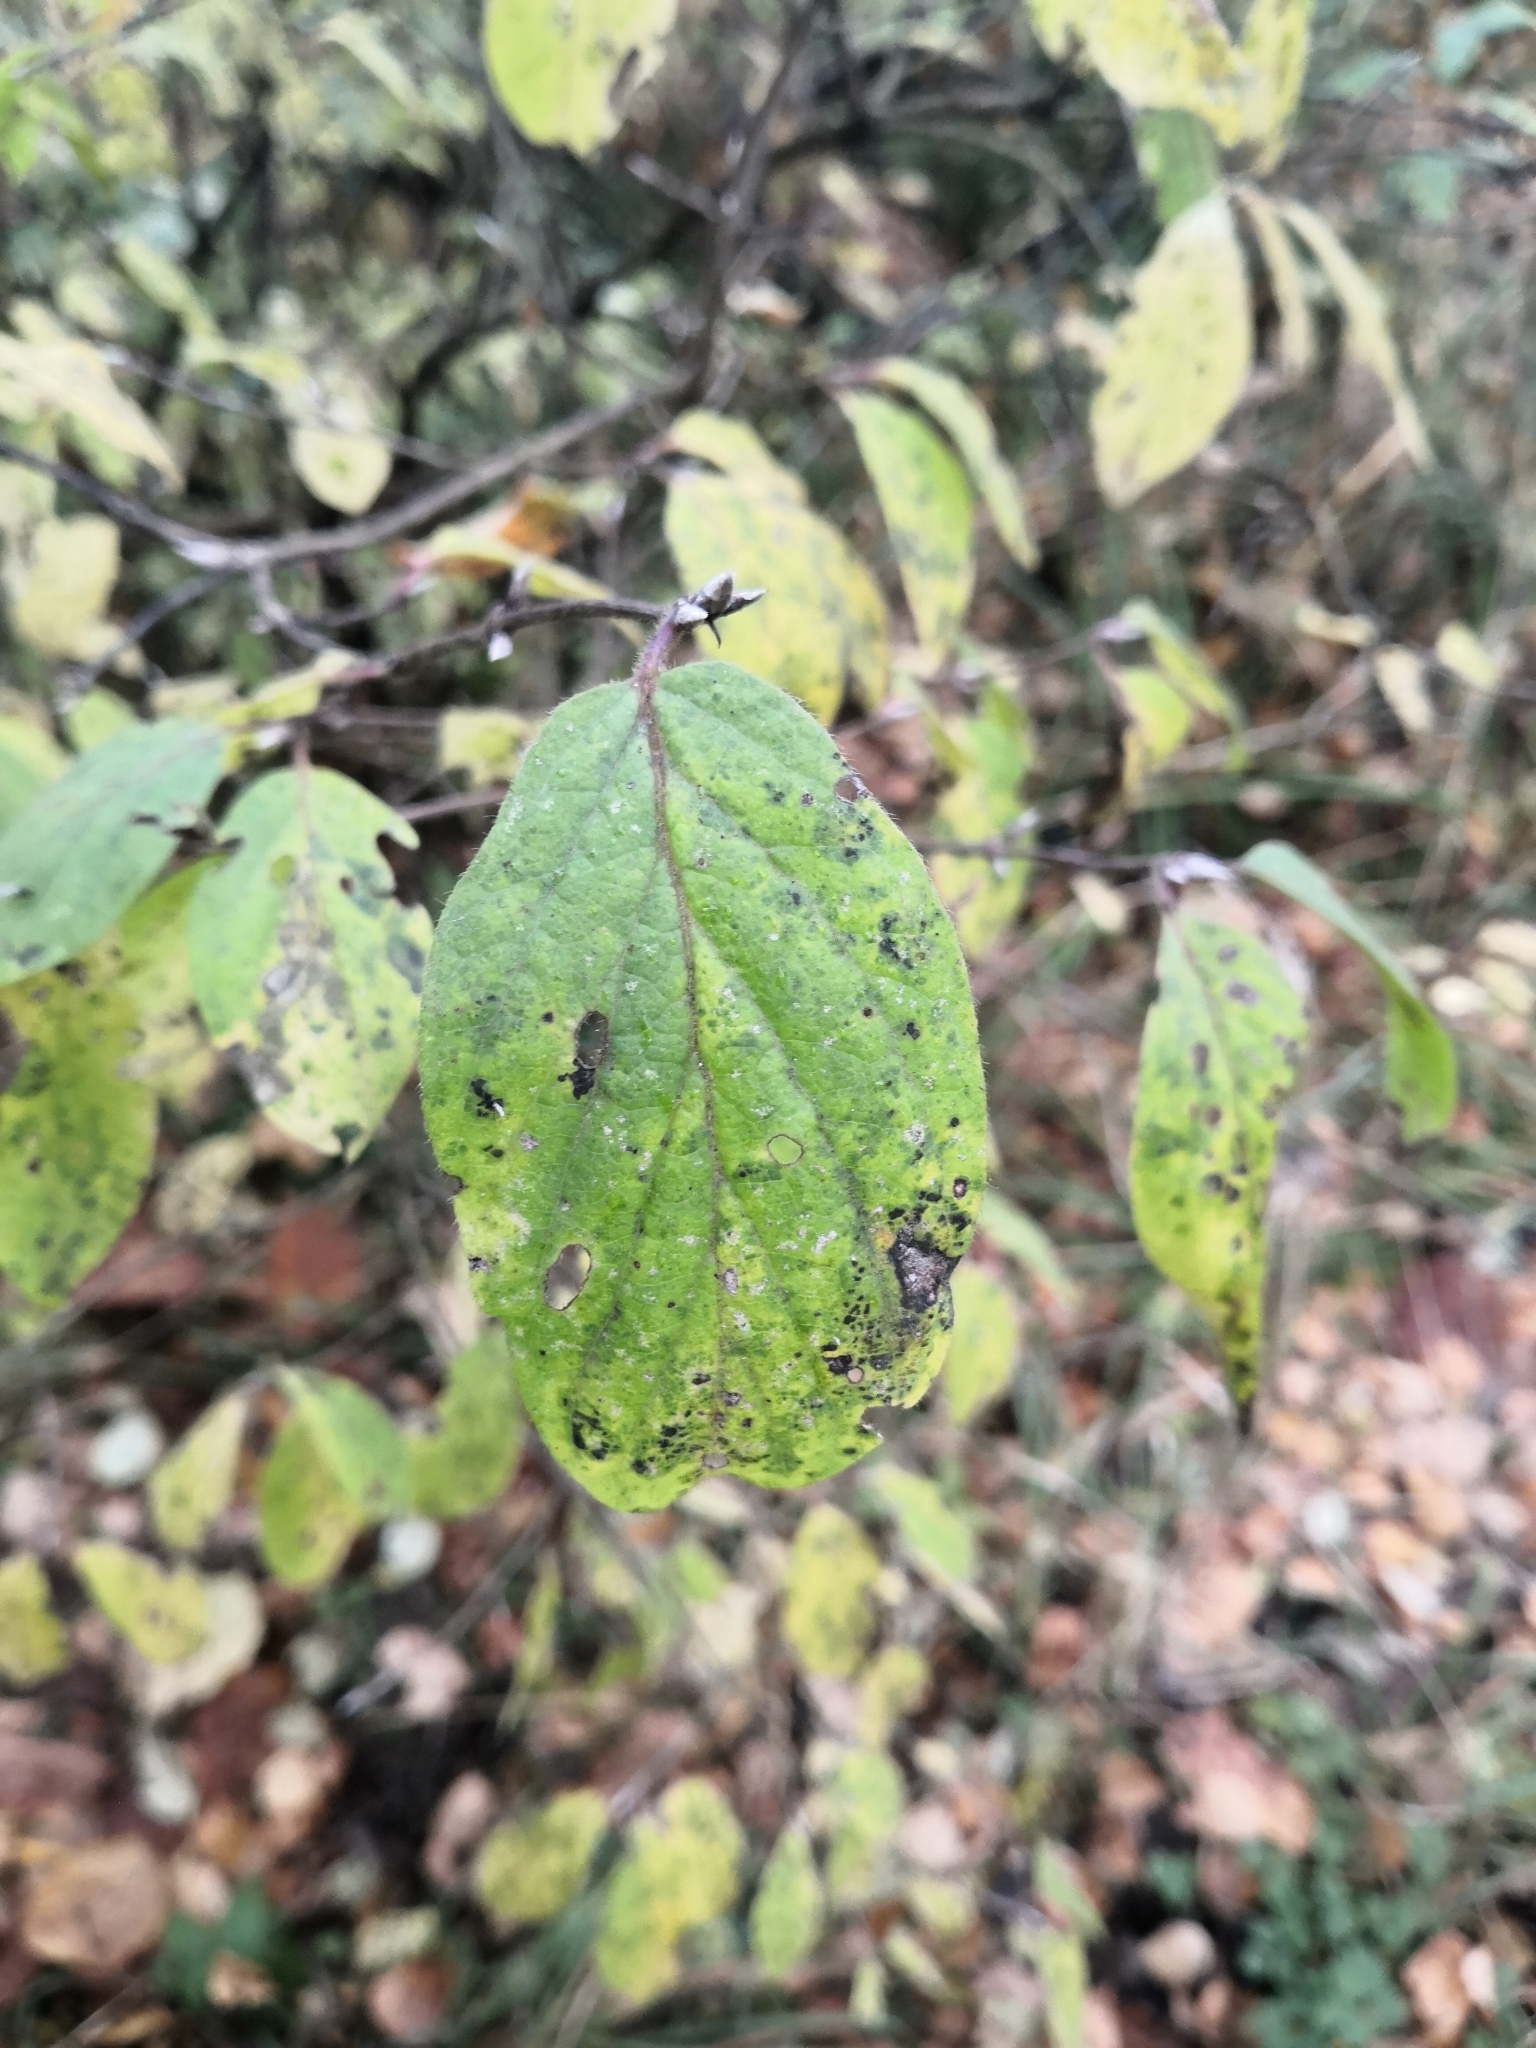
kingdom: Plantae
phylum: Tracheophyta
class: Magnoliopsida
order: Dipsacales
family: Caprifoliaceae
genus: Lonicera
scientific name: Lonicera xylosteum
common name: Fly honeysuckle
